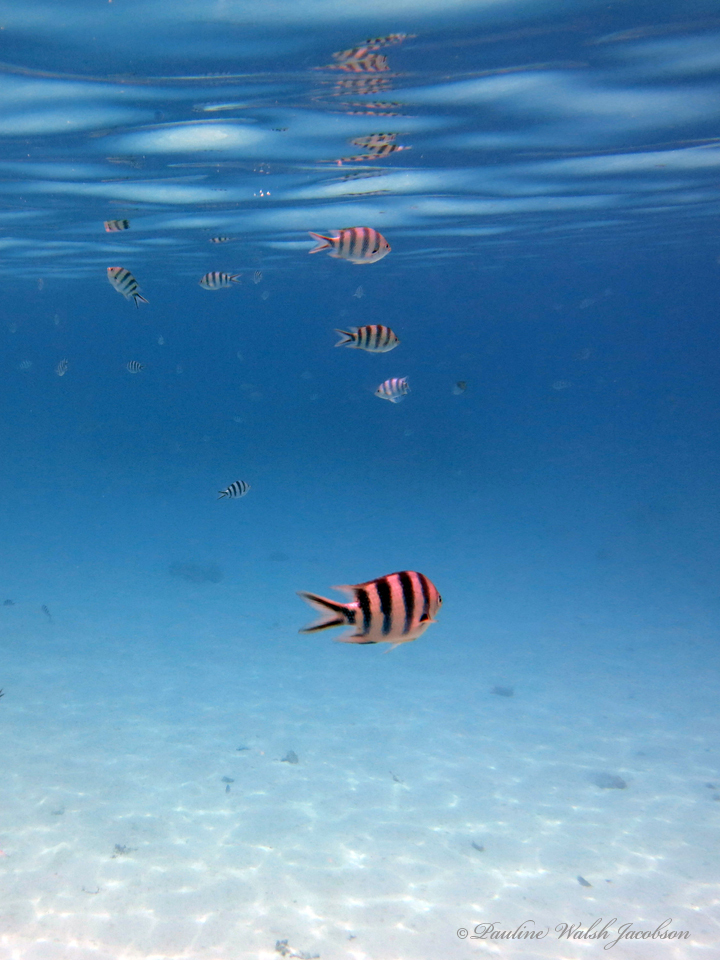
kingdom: Animalia
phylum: Chordata
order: Perciformes
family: Pomacentridae
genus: Abudefduf
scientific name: Abudefduf sexfasciatus
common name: Scissortail sergeant
